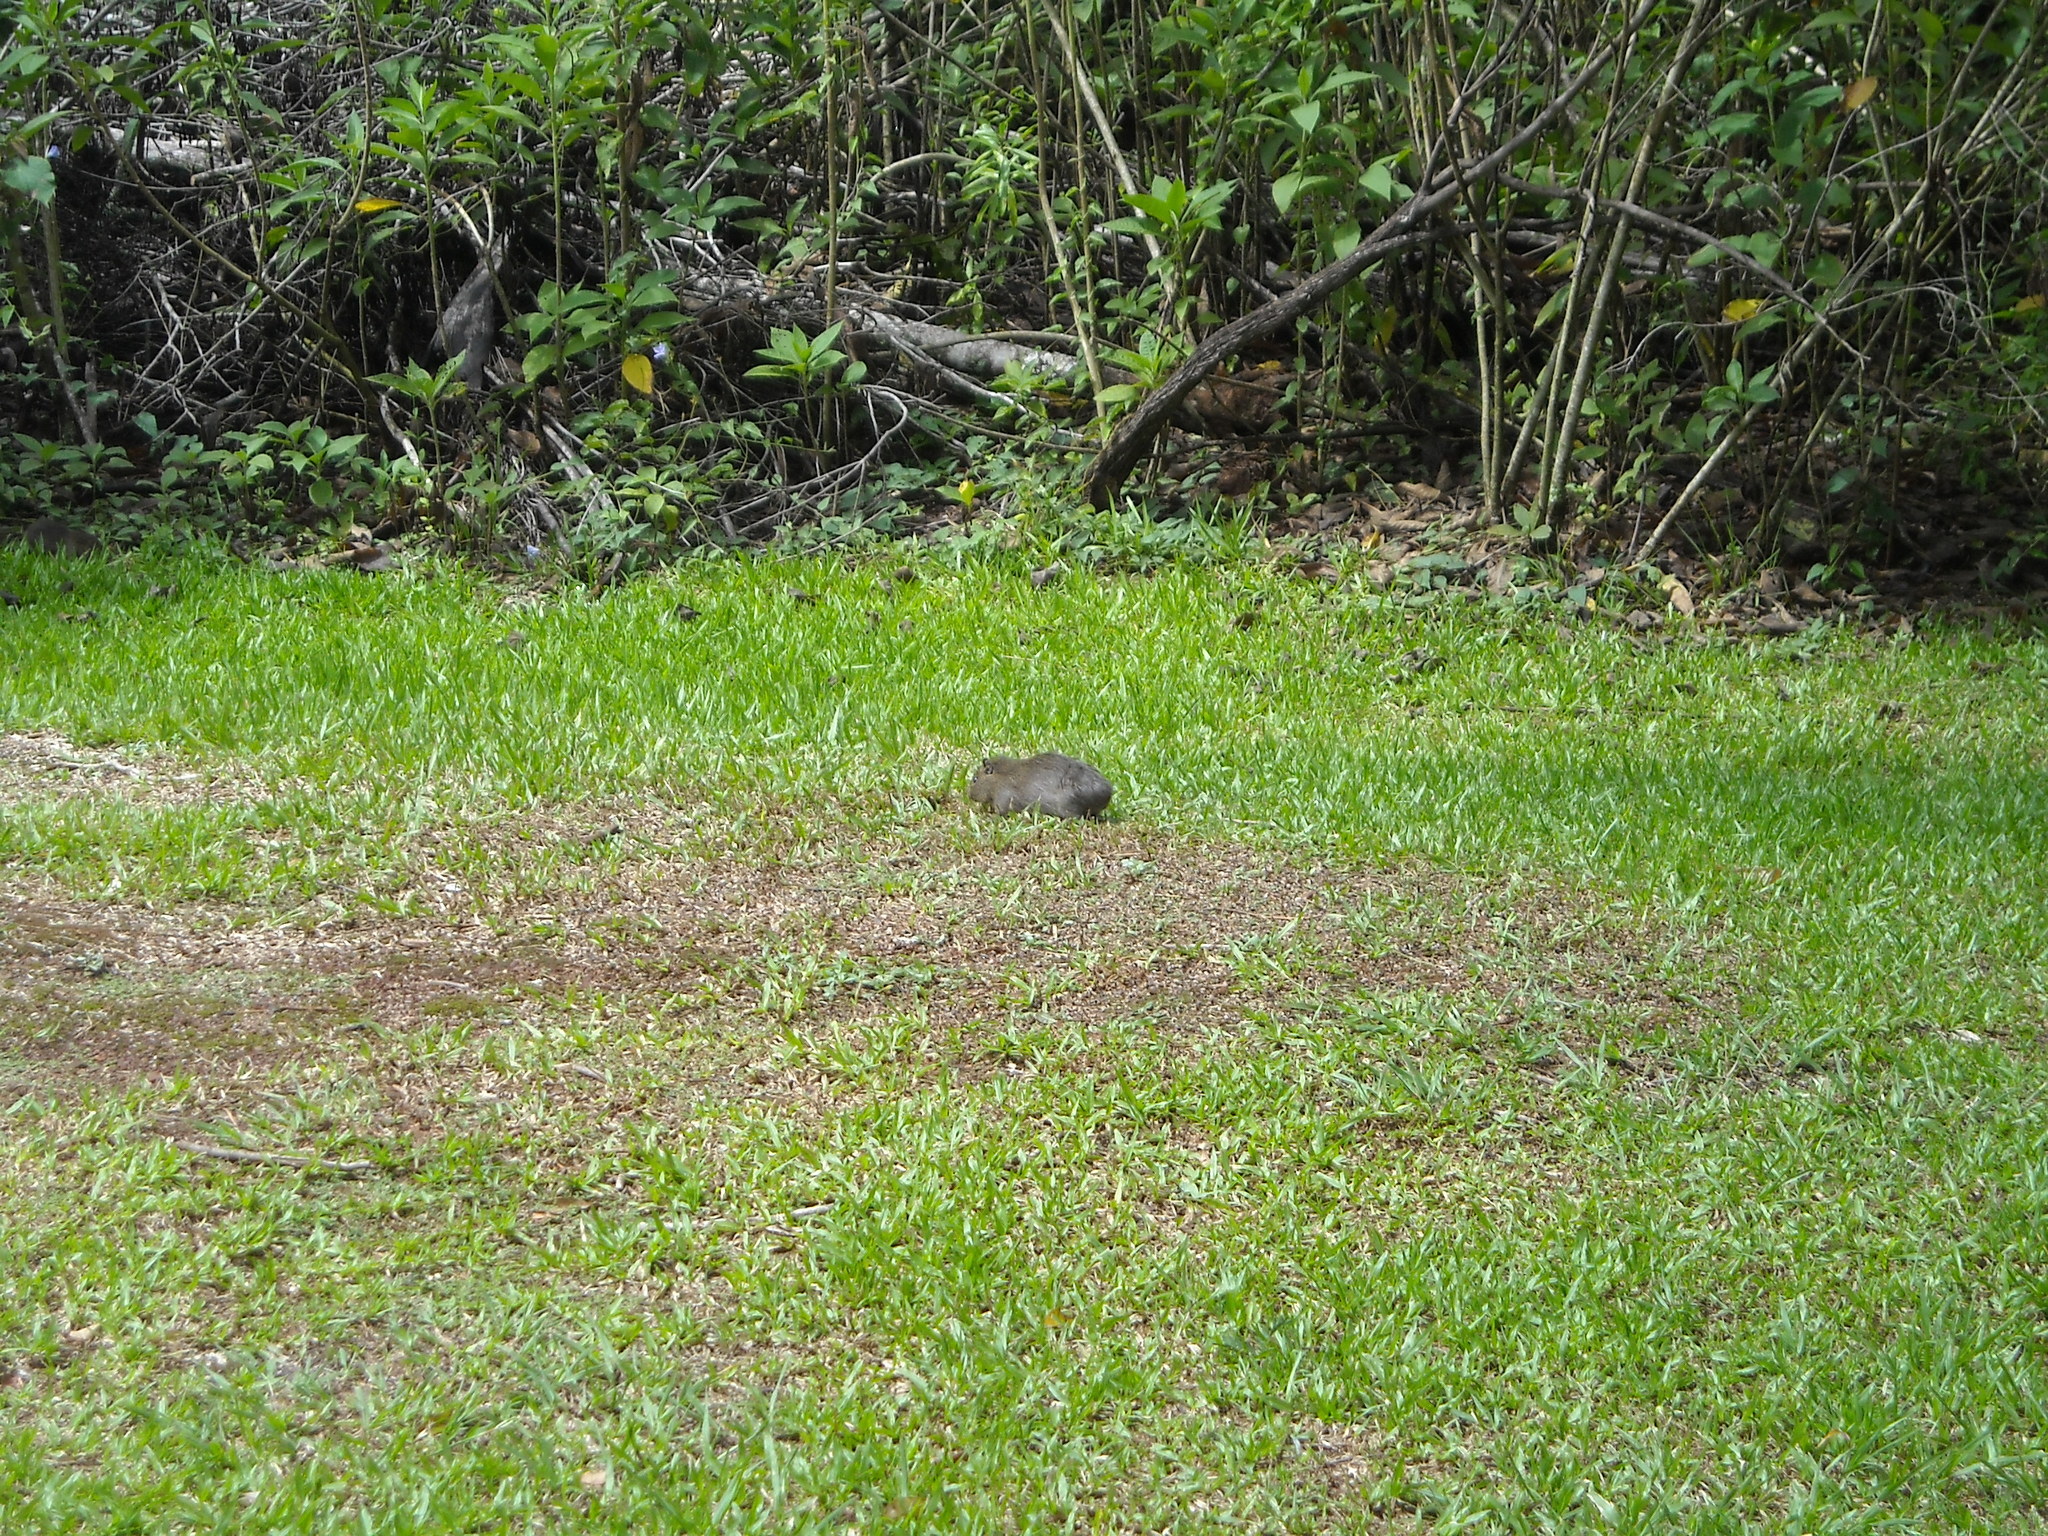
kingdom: Animalia
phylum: Chordata
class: Mammalia
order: Rodentia
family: Caviidae
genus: Cavia
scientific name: Cavia aperea
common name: Brazilian guinea pig
